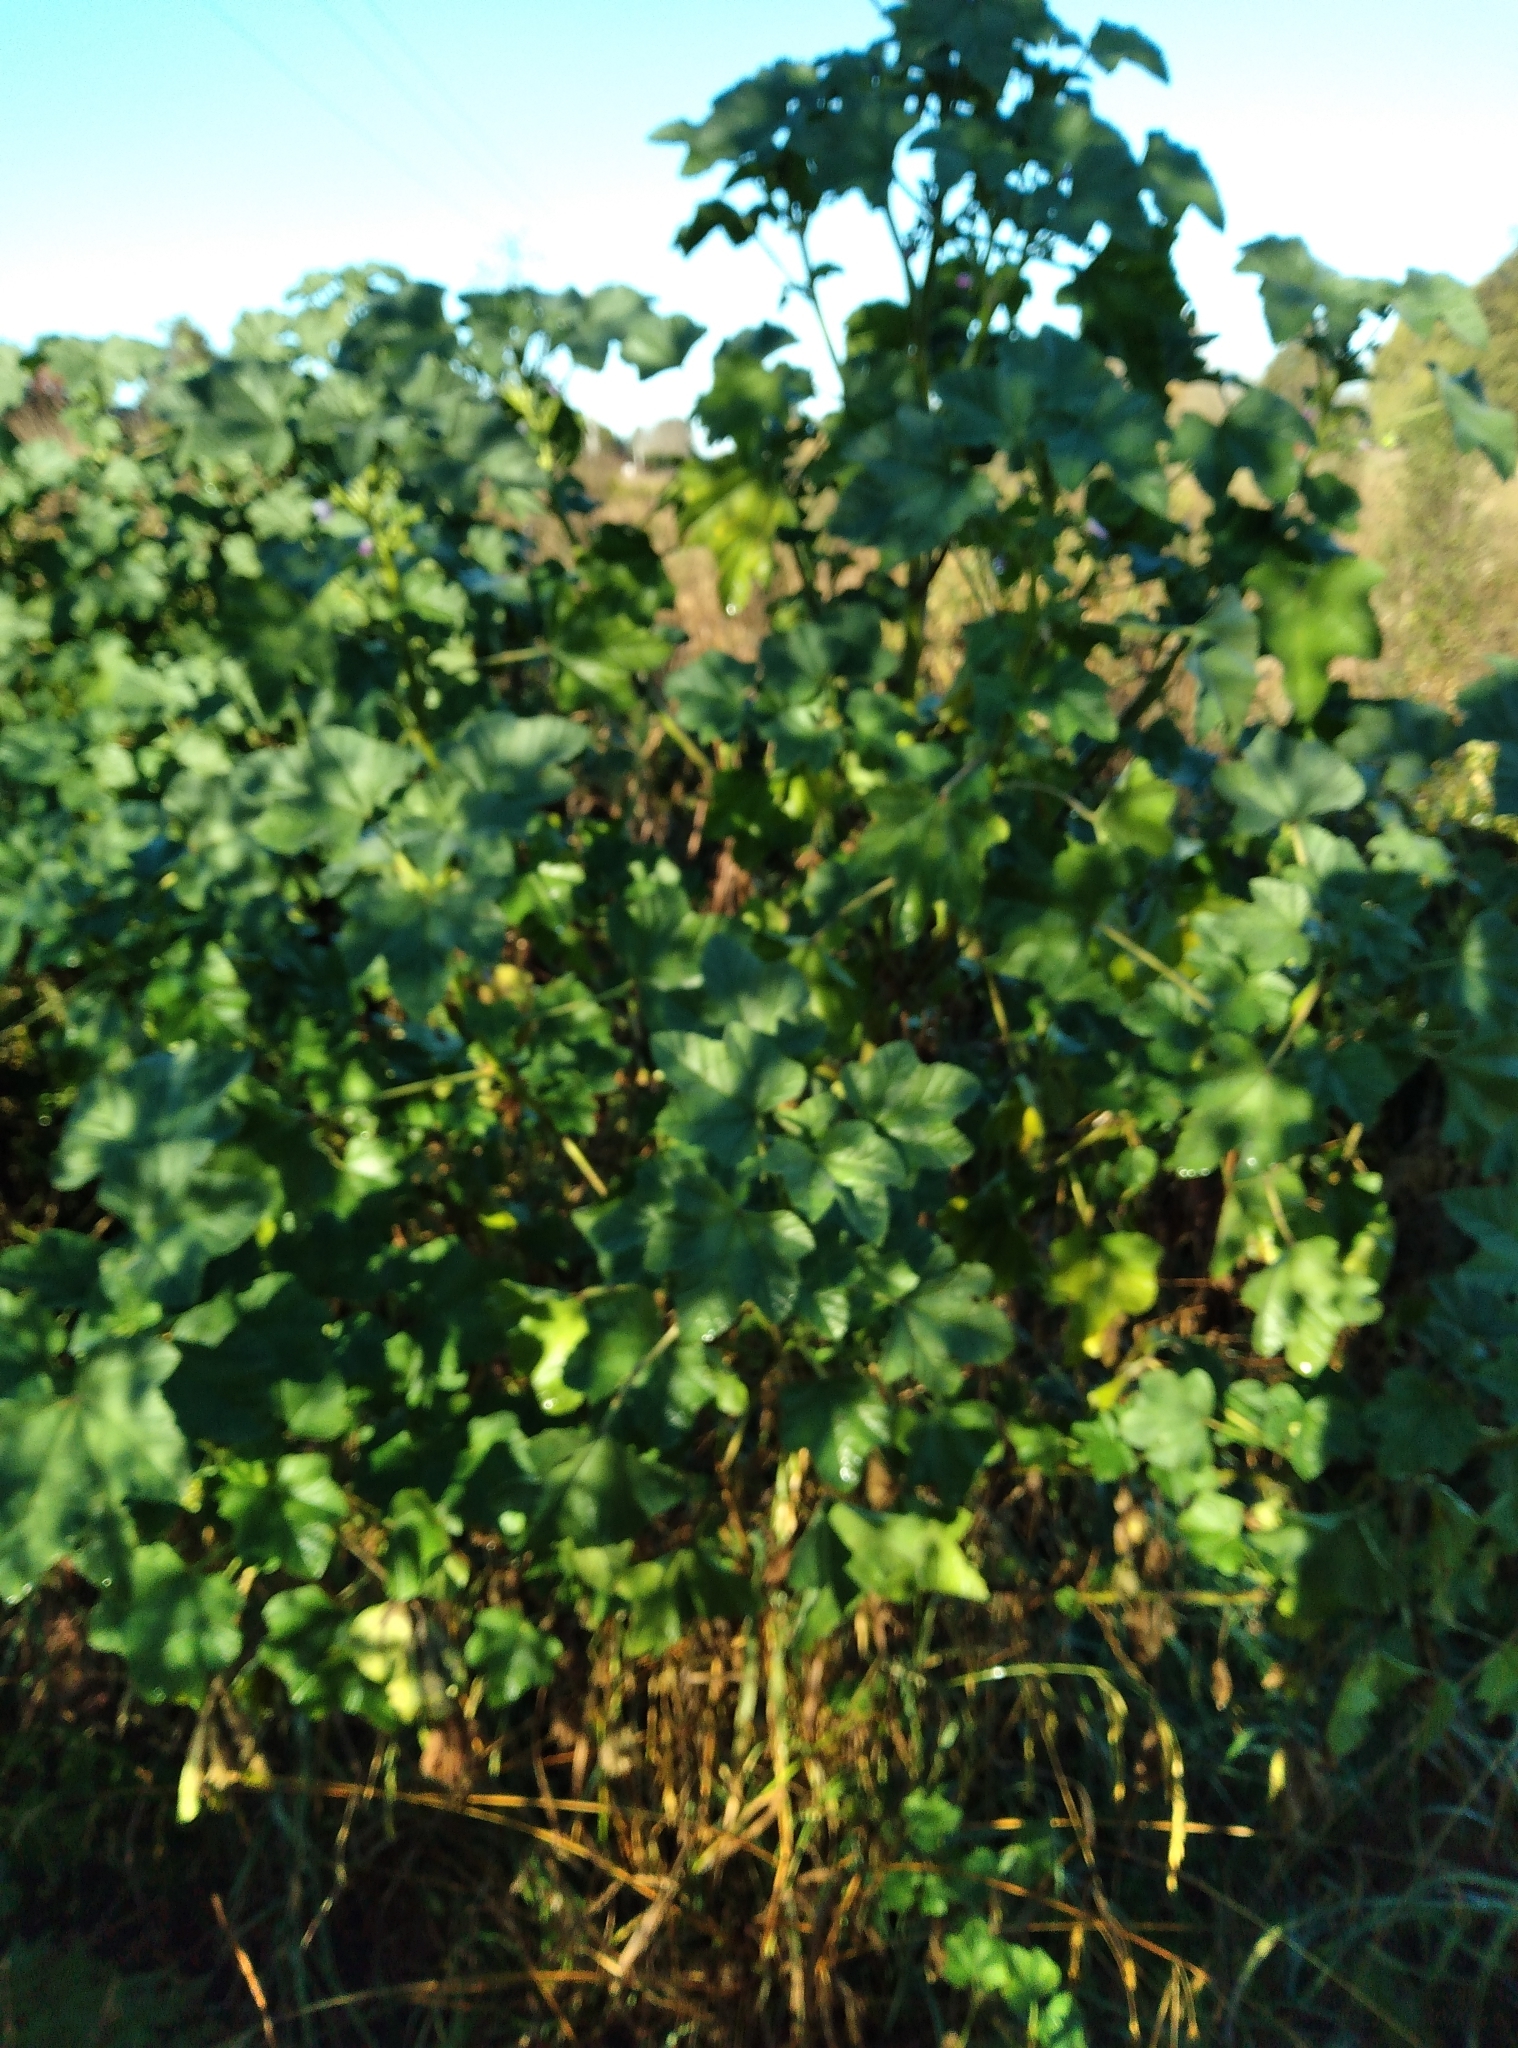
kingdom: Plantae
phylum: Tracheophyta
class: Magnoliopsida
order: Malvales
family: Malvaceae
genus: Malva
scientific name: Malva multiflora
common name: Cheeseweed
